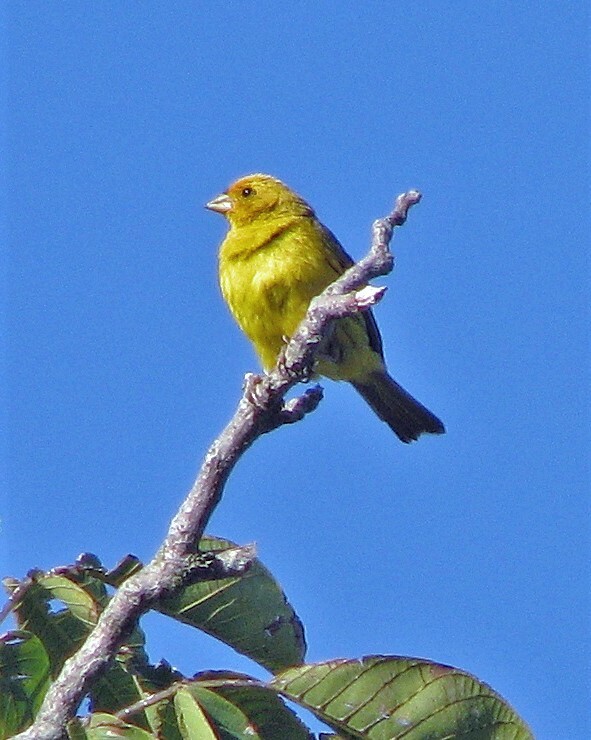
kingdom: Animalia
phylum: Chordata
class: Aves
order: Passeriformes
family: Thraupidae
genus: Sicalis
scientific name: Sicalis flaveola
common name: Saffron finch
